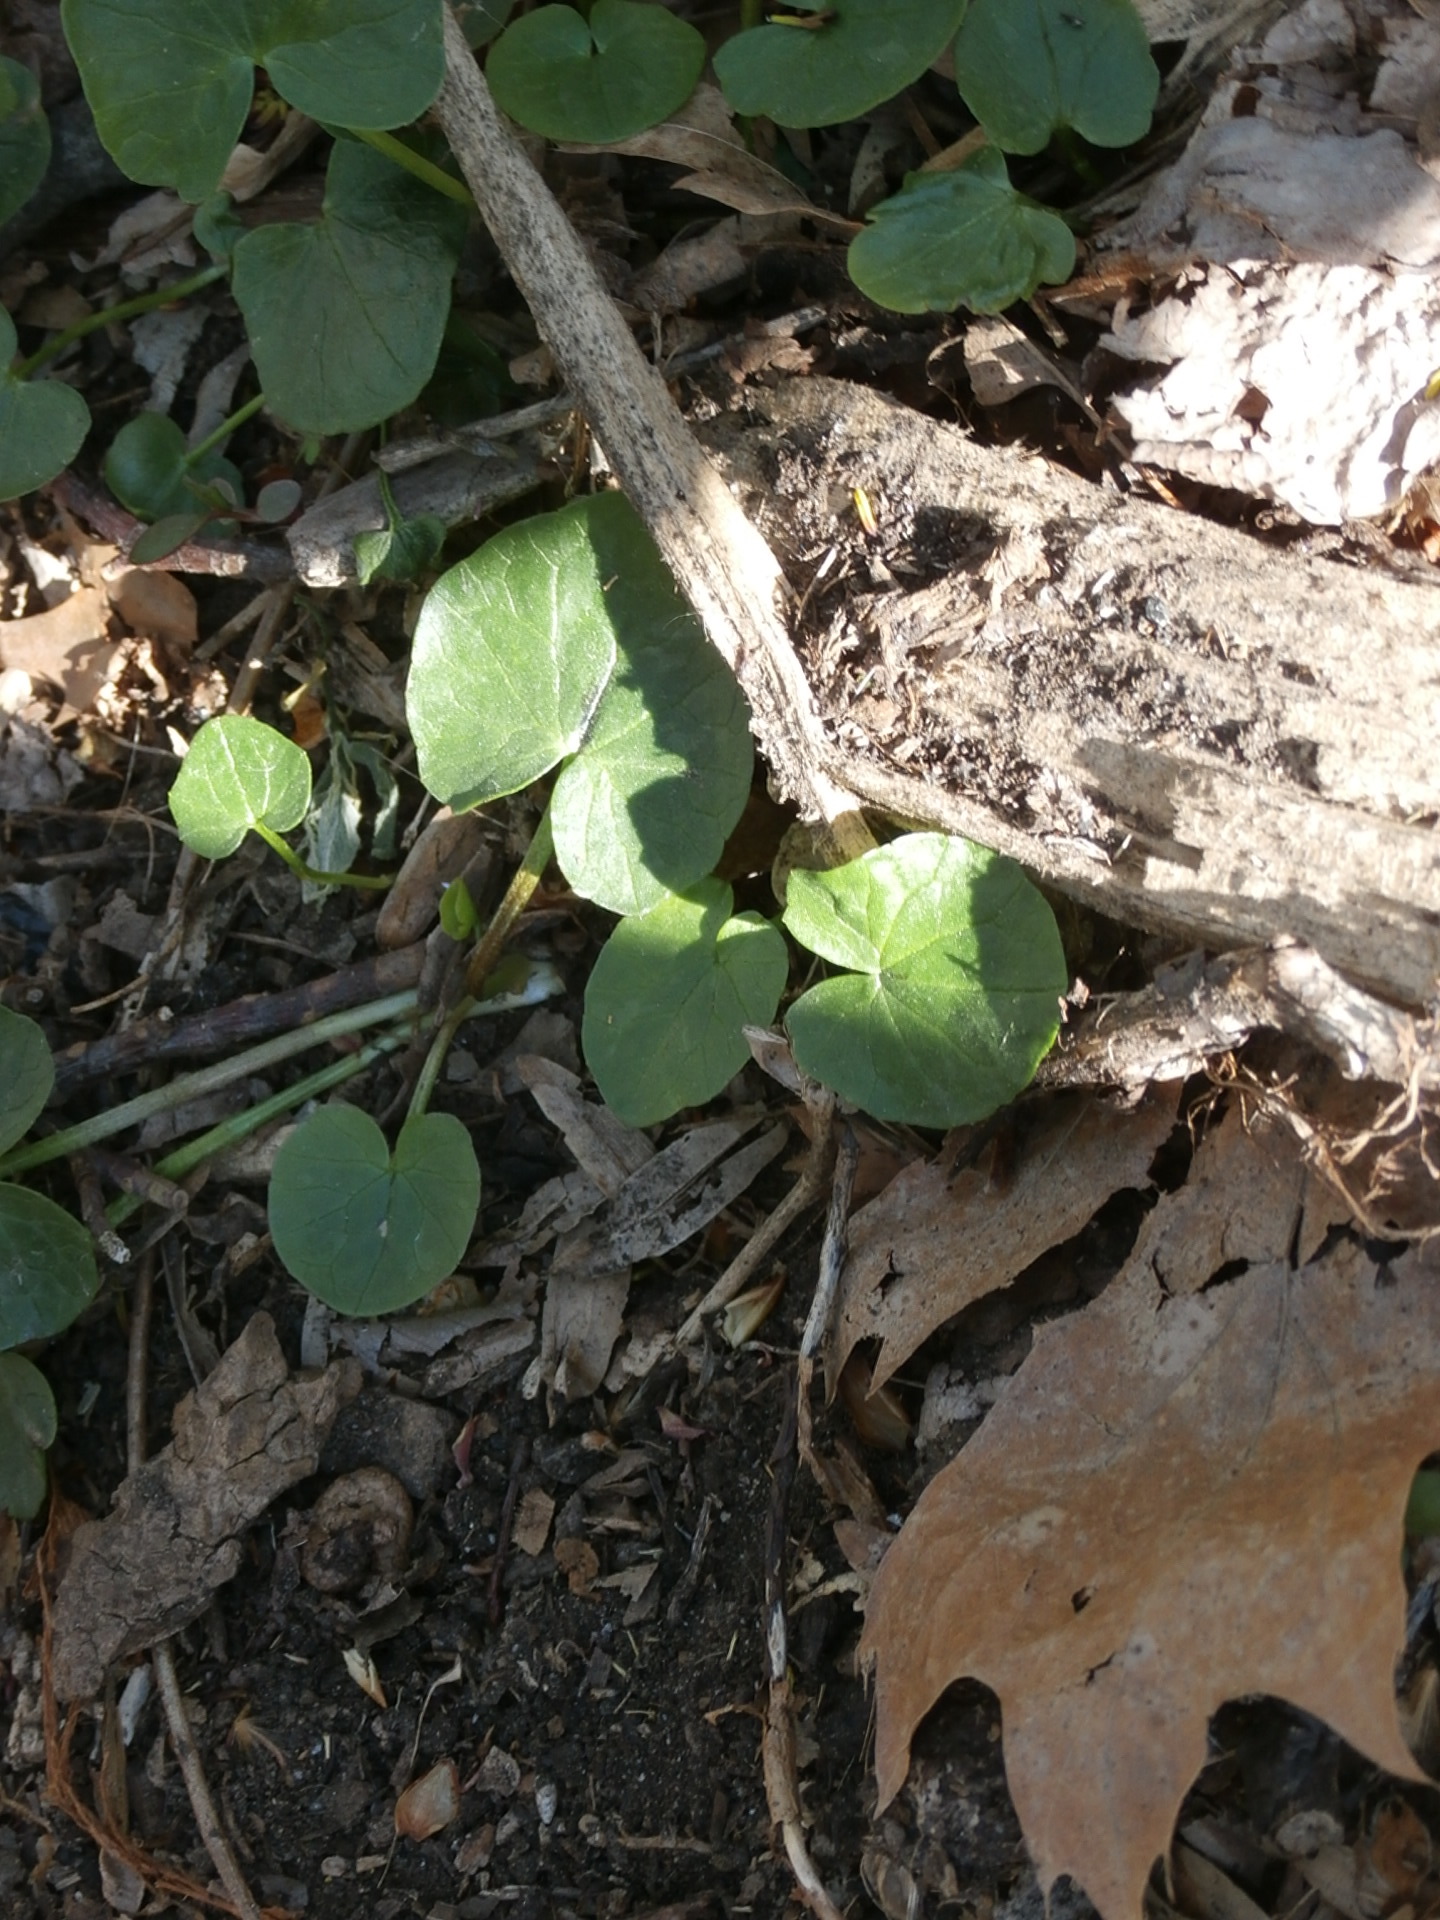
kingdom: Plantae
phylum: Tracheophyta
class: Magnoliopsida
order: Ranunculales
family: Ranunculaceae
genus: Ficaria
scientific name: Ficaria verna
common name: Lesser celandine
